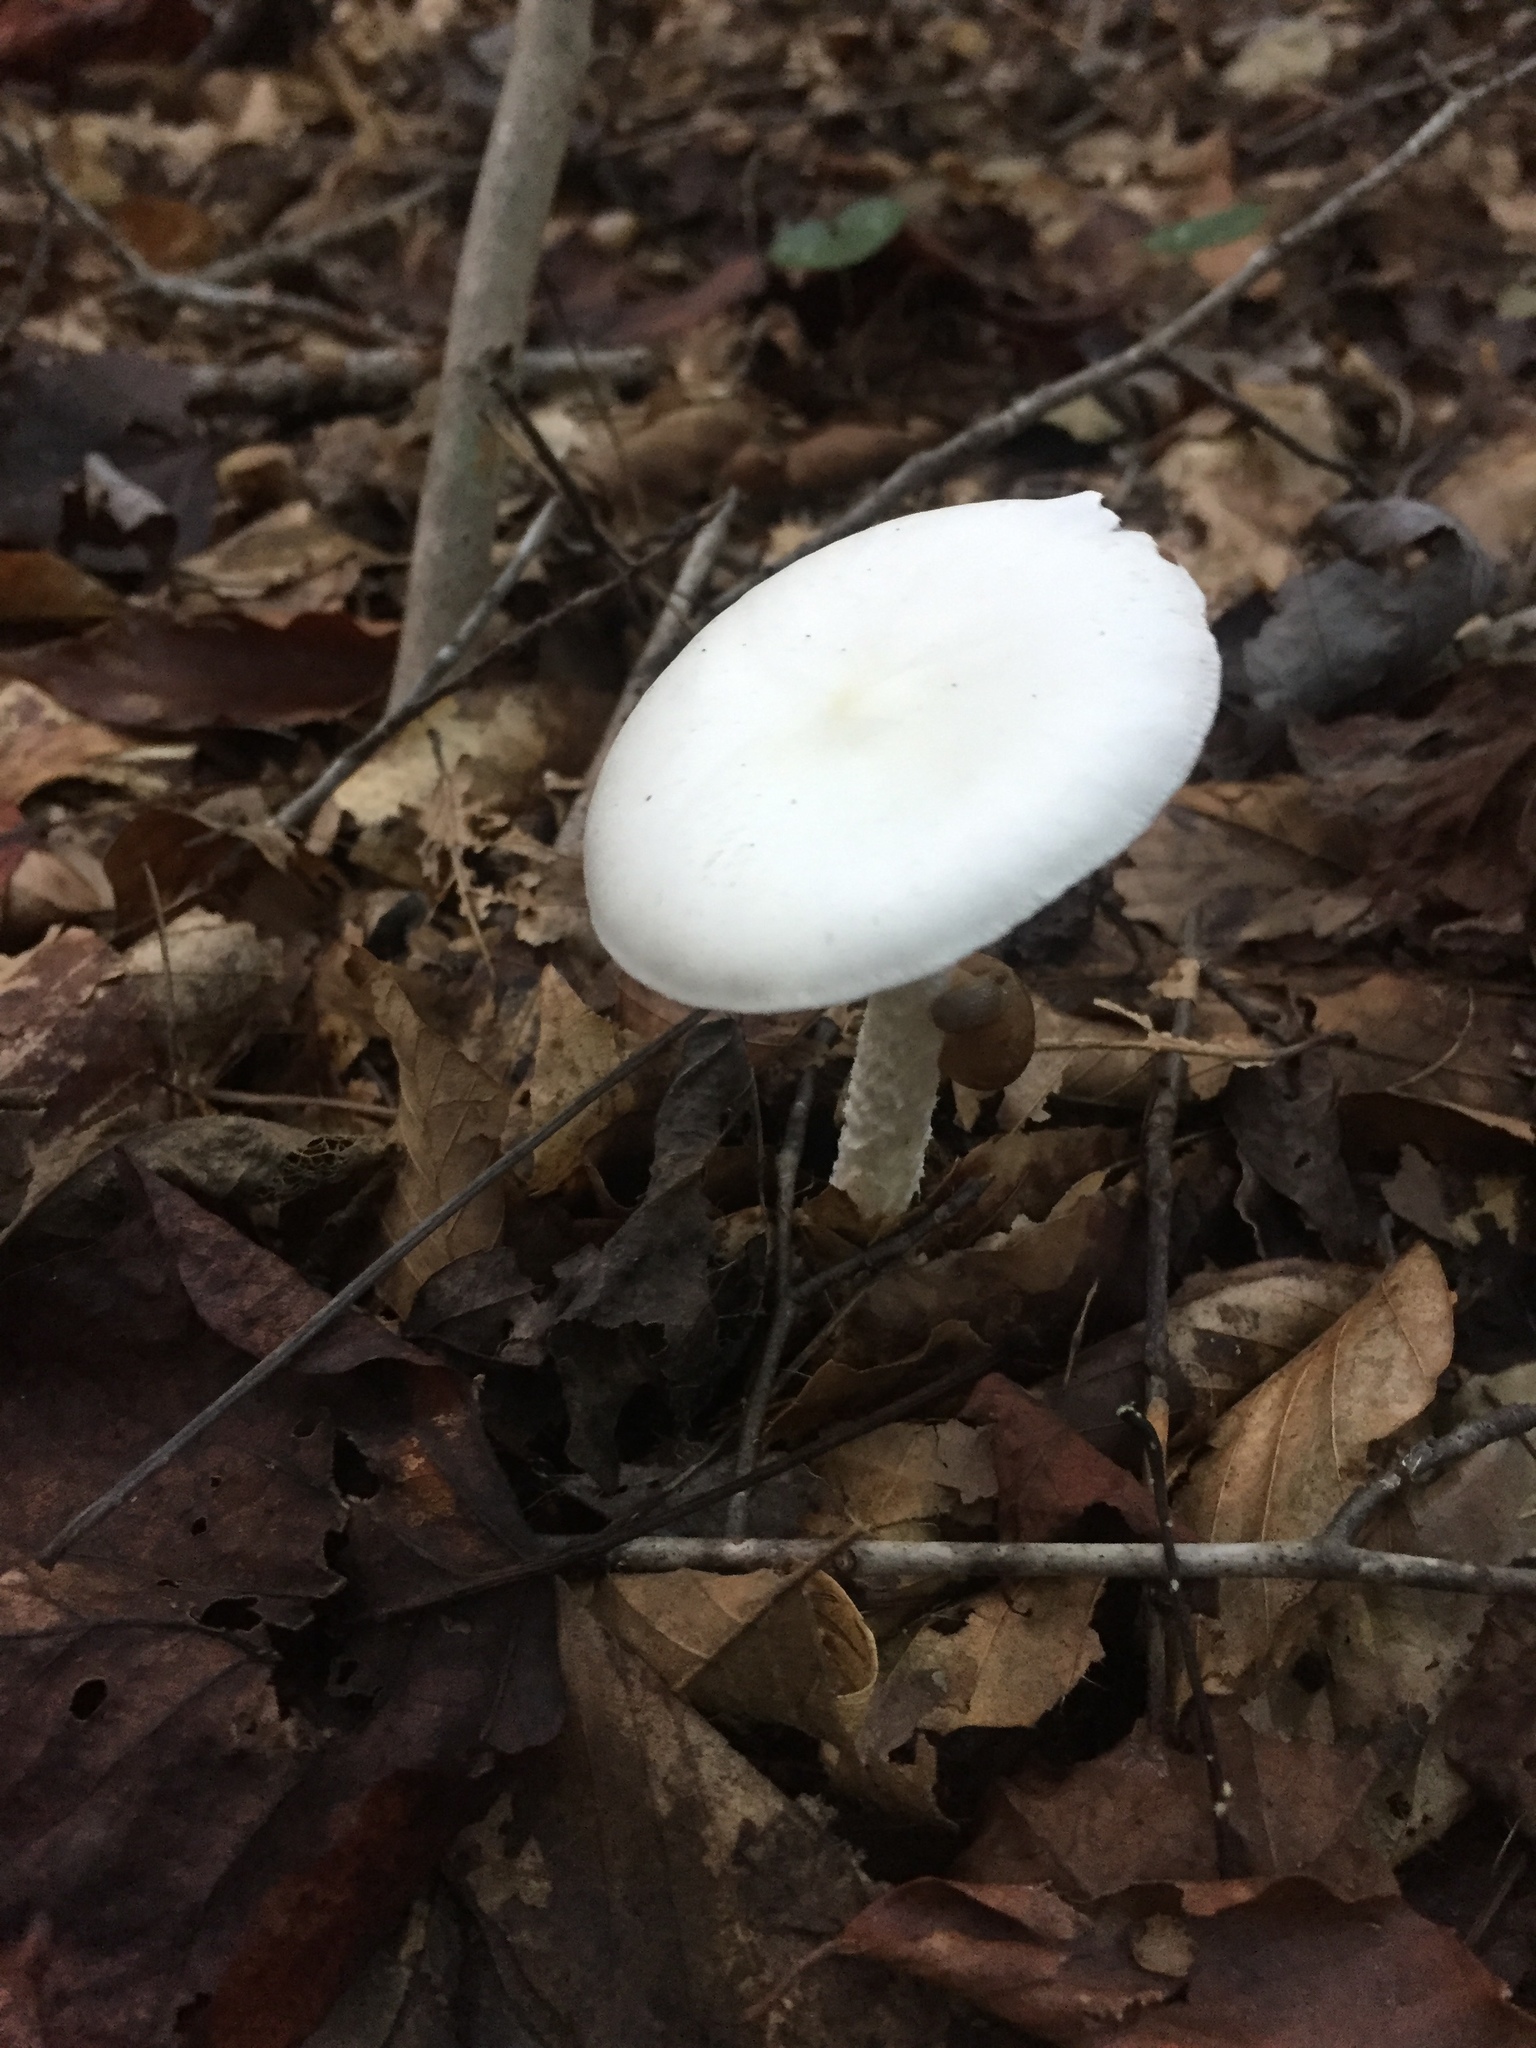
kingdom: Fungi
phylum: Basidiomycota
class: Agaricomycetes
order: Agaricales
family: Amanitaceae
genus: Amanita
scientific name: Amanita bisporigera
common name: Eastern north american destroying angel
